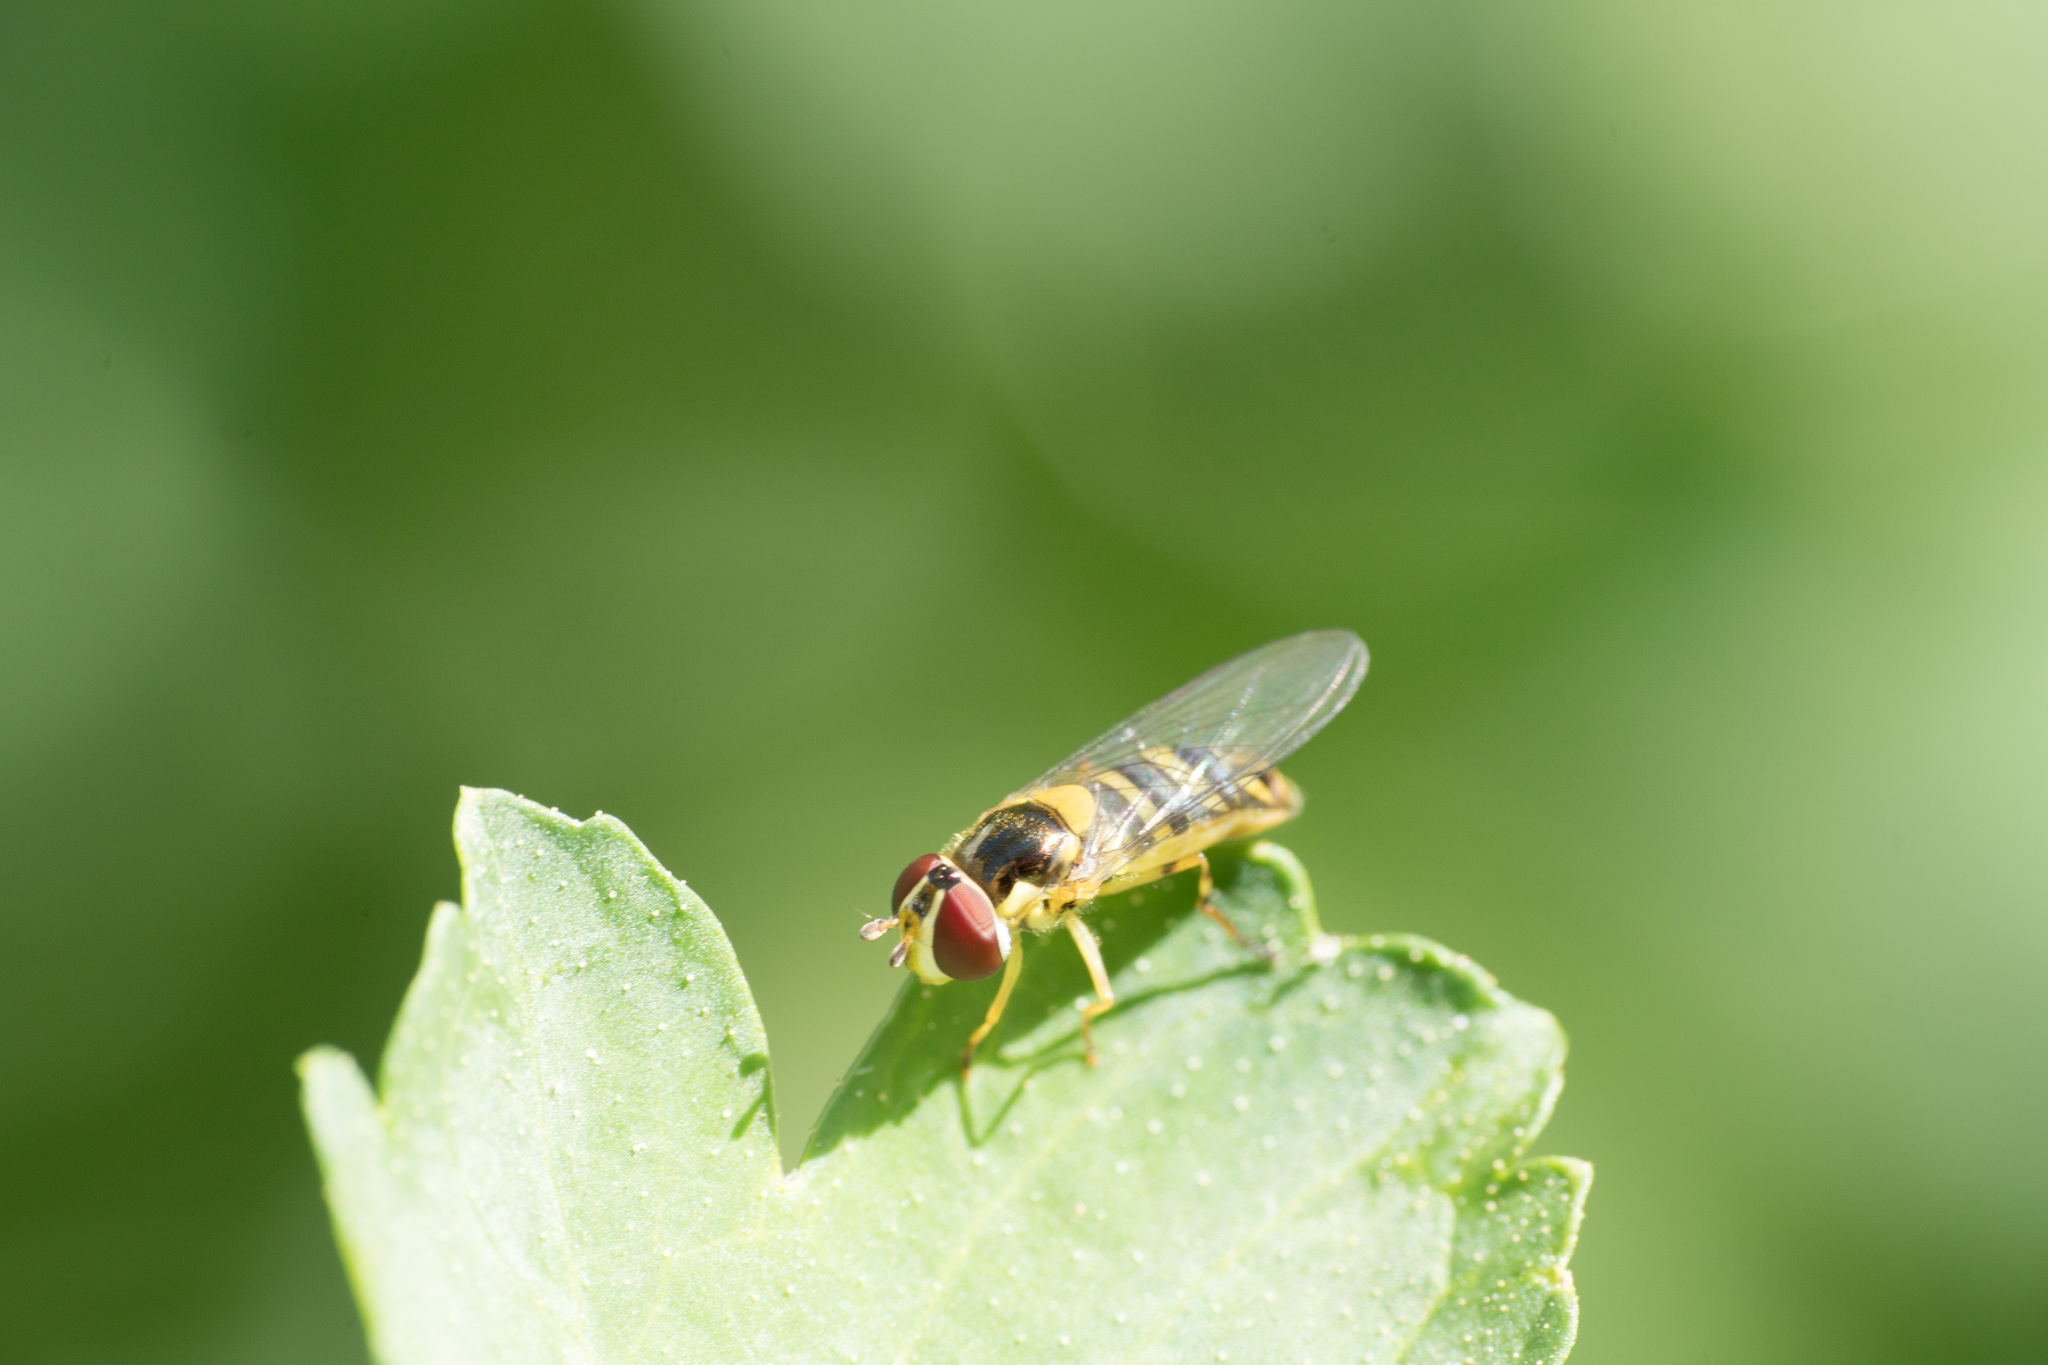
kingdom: Animalia
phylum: Arthropoda
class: Insecta
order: Diptera
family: Syrphidae
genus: Allograpta
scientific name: Allograpta obliqua
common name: Common oblique syrphid
